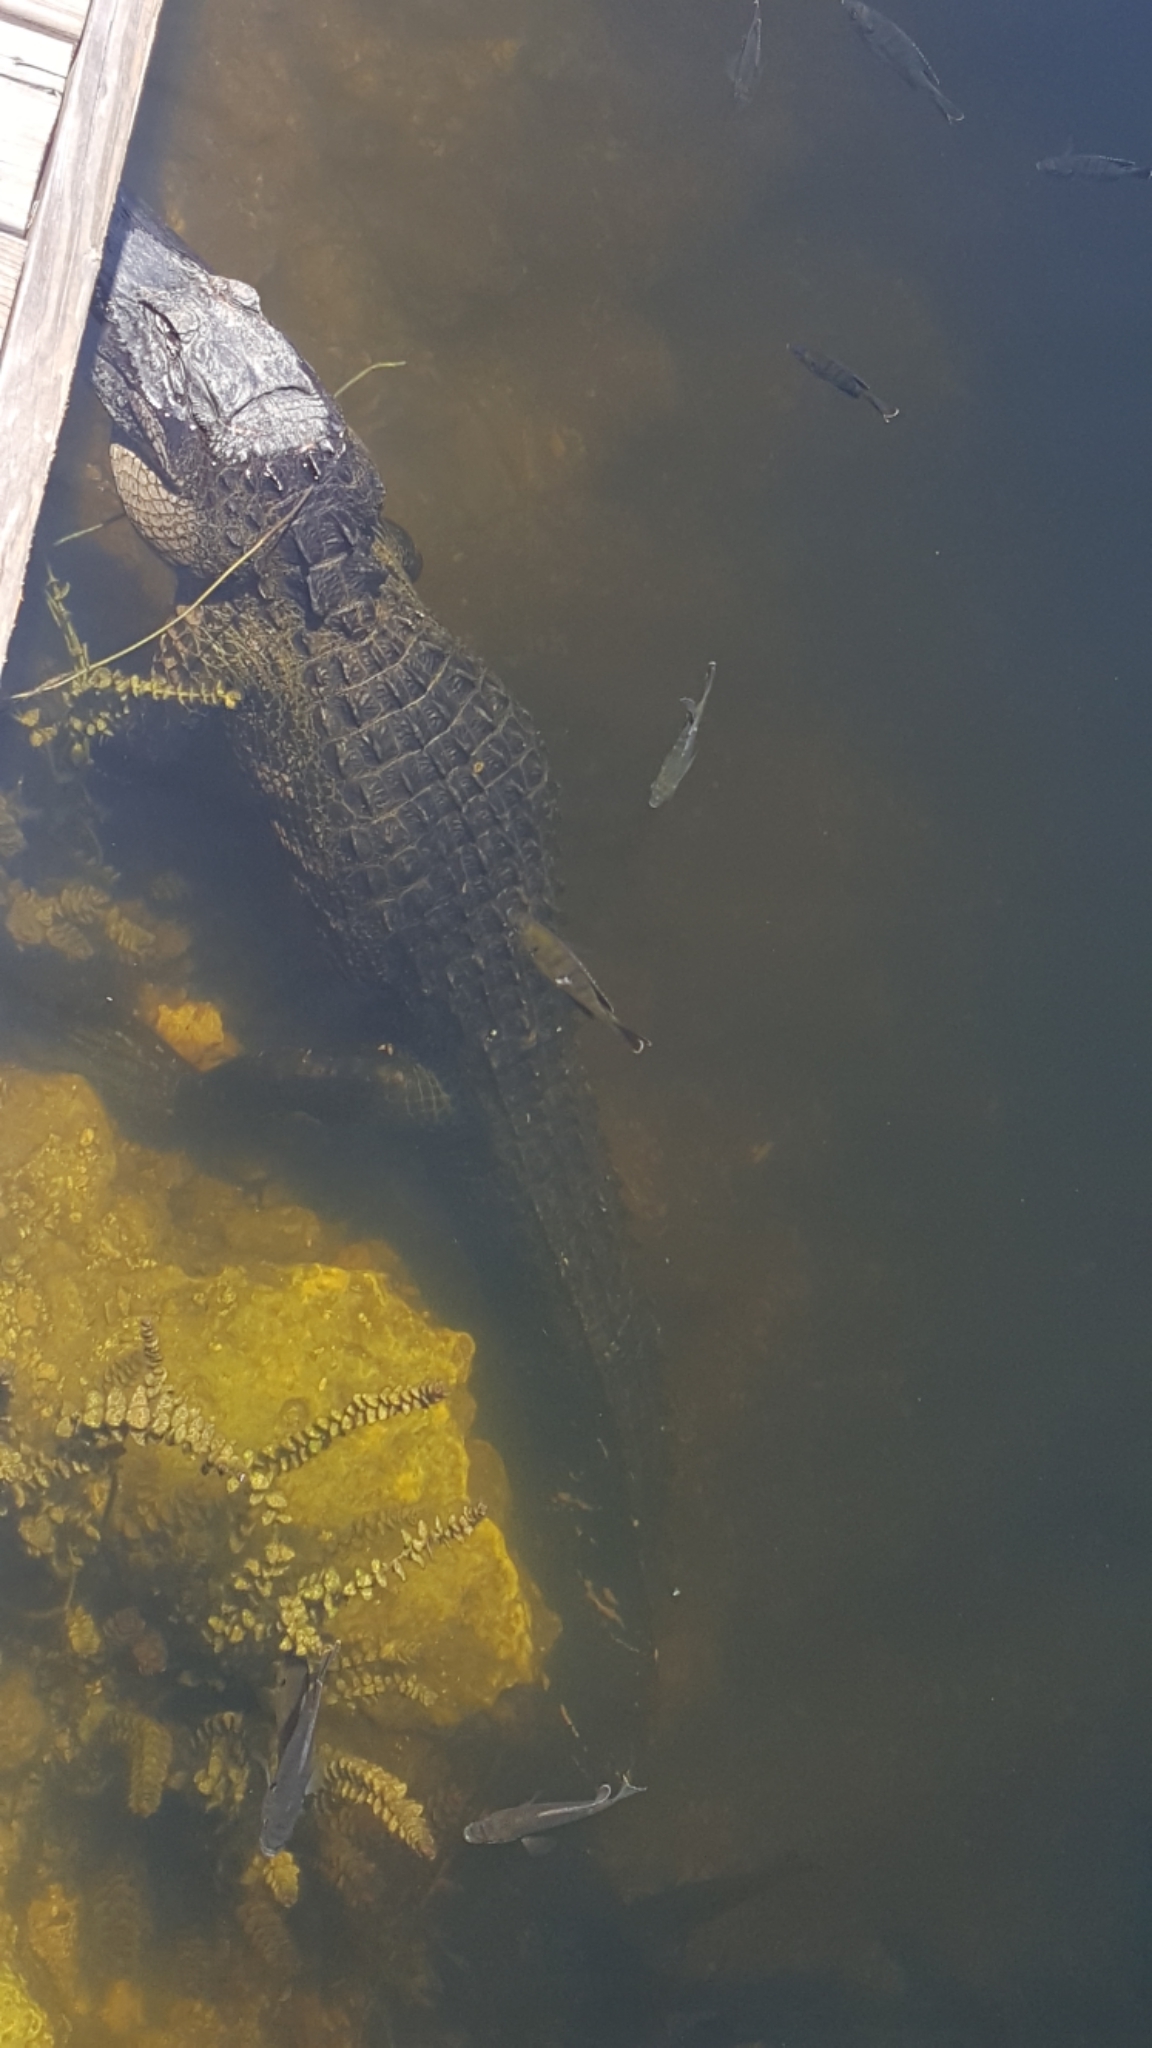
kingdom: Animalia
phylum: Chordata
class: Crocodylia
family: Alligatoridae
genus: Alligator
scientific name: Alligator mississippiensis
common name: American alligator
